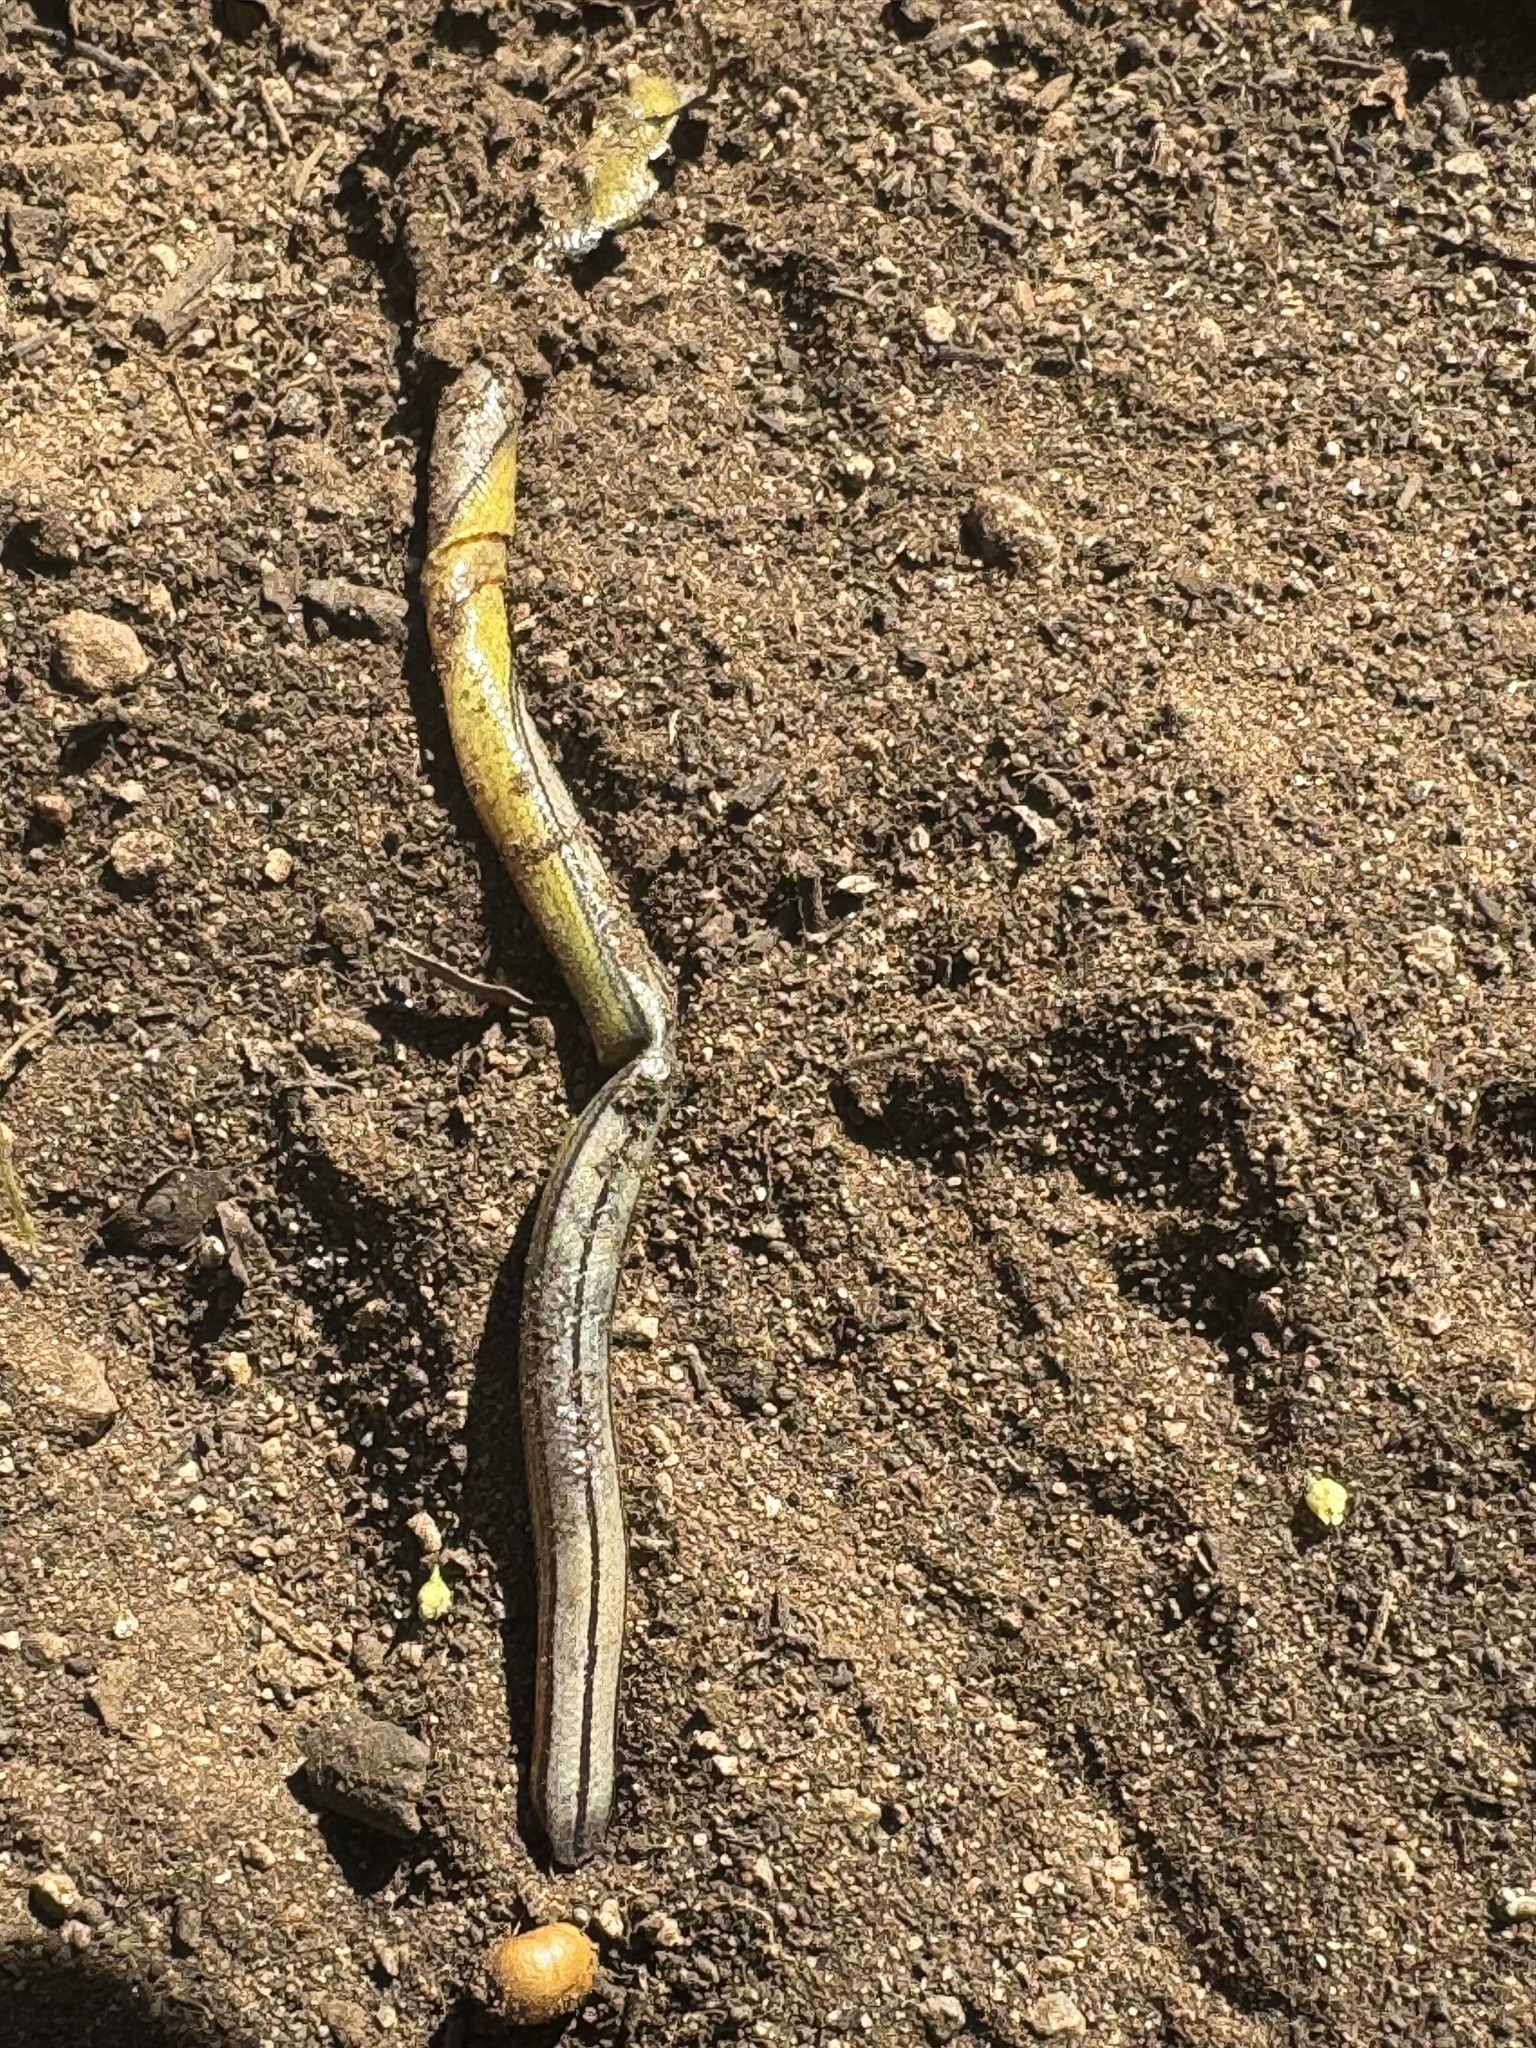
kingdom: Animalia
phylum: Chordata
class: Squamata
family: Anguidae
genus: Anniella
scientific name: Anniella stebbinsi
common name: Southern california legless lizard
